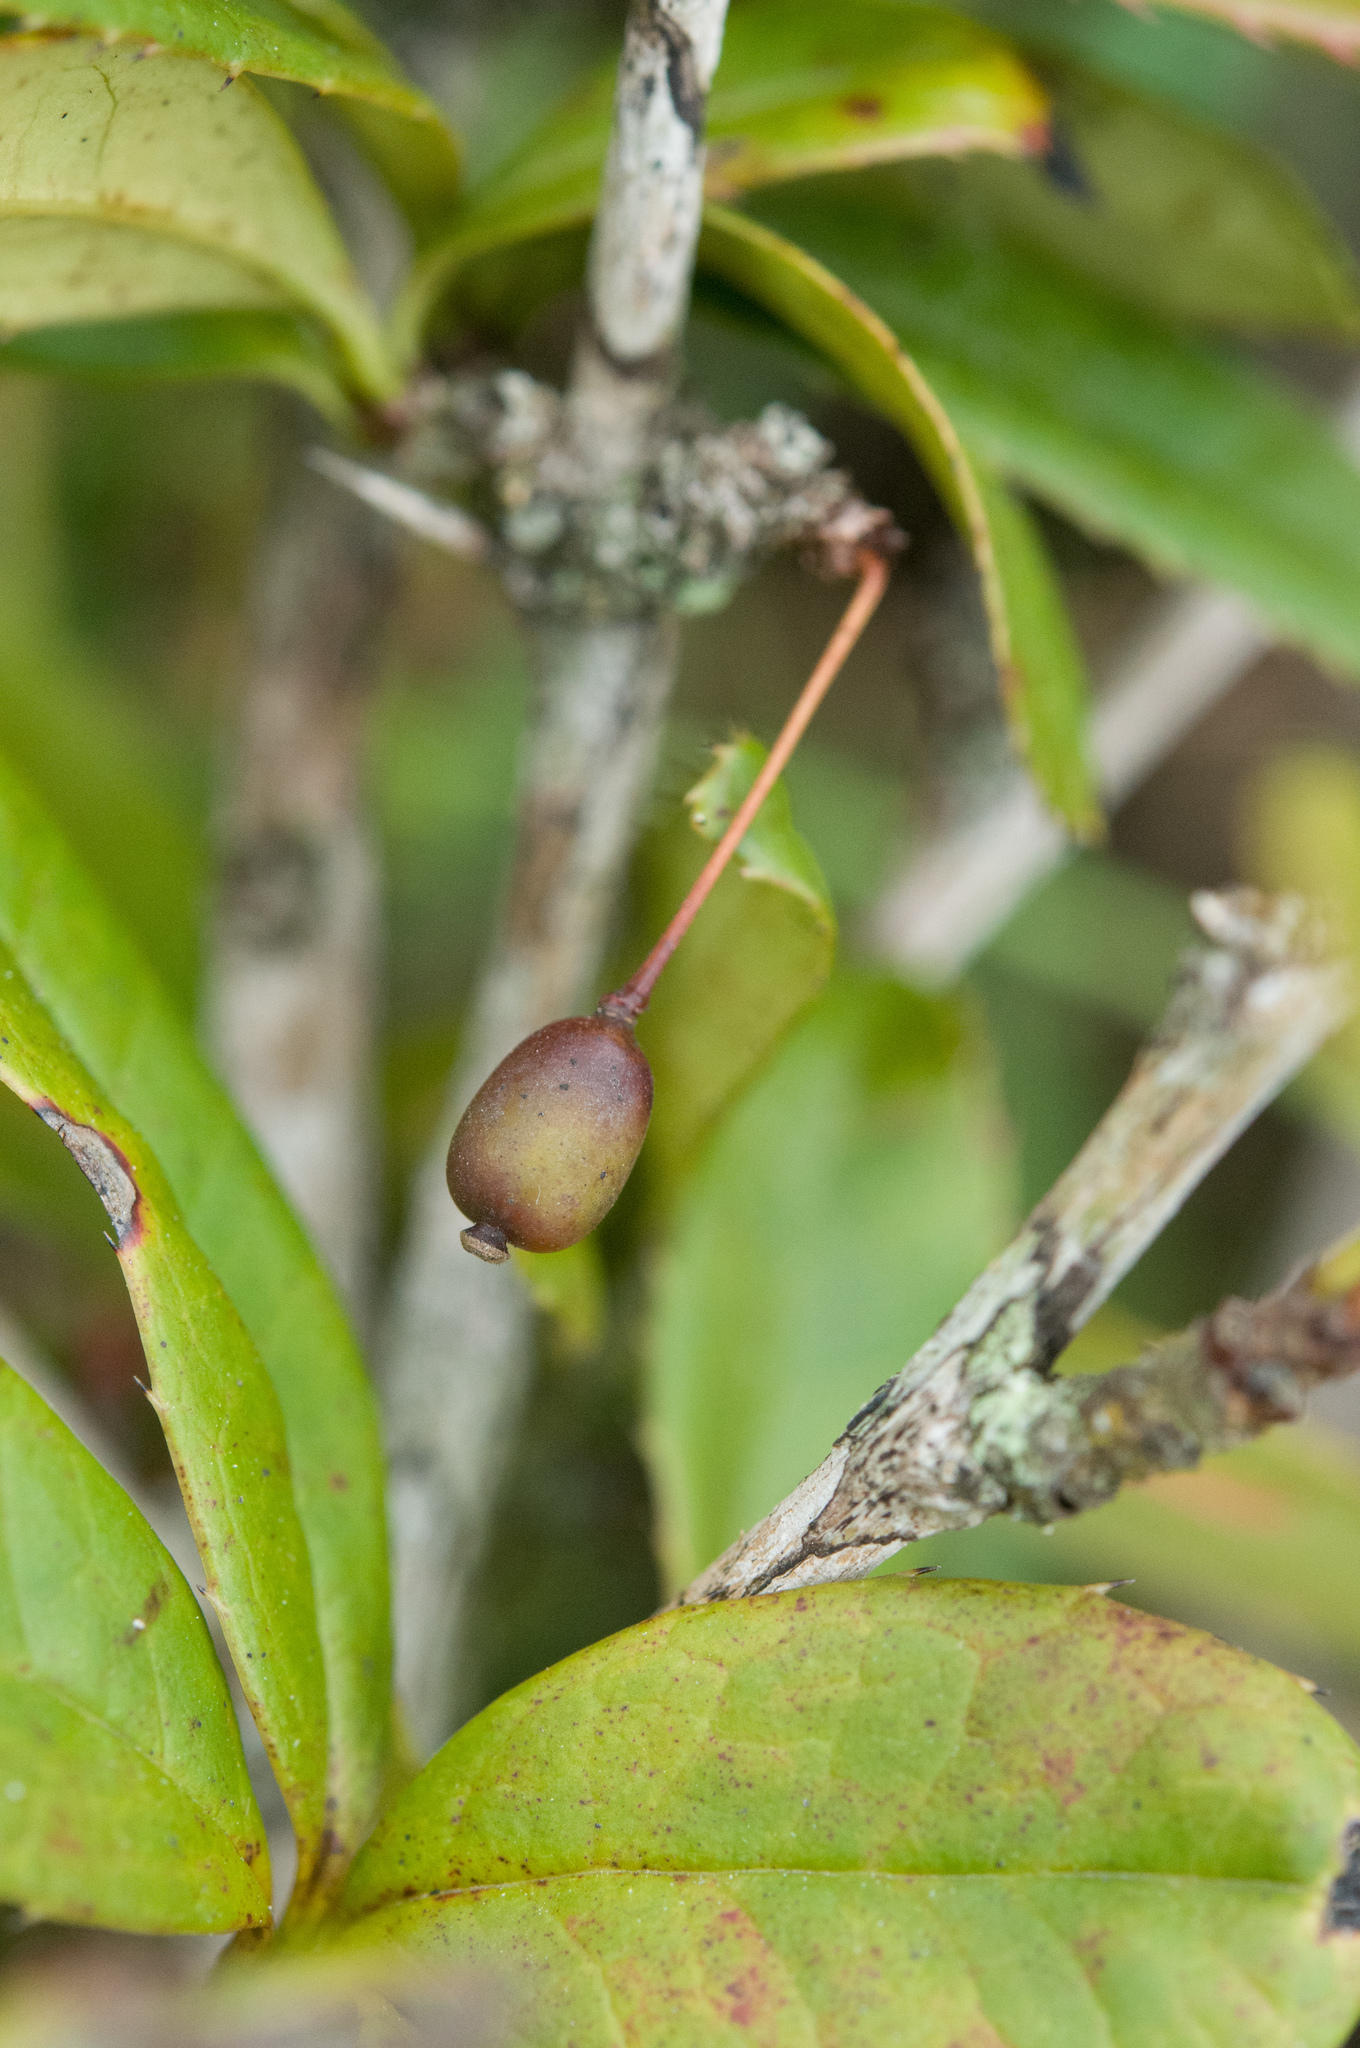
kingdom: Plantae
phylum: Tracheophyta
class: Magnoliopsida
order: Ranunculales
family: Berberidaceae
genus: Berberis
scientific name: Berberis tarokoensis
